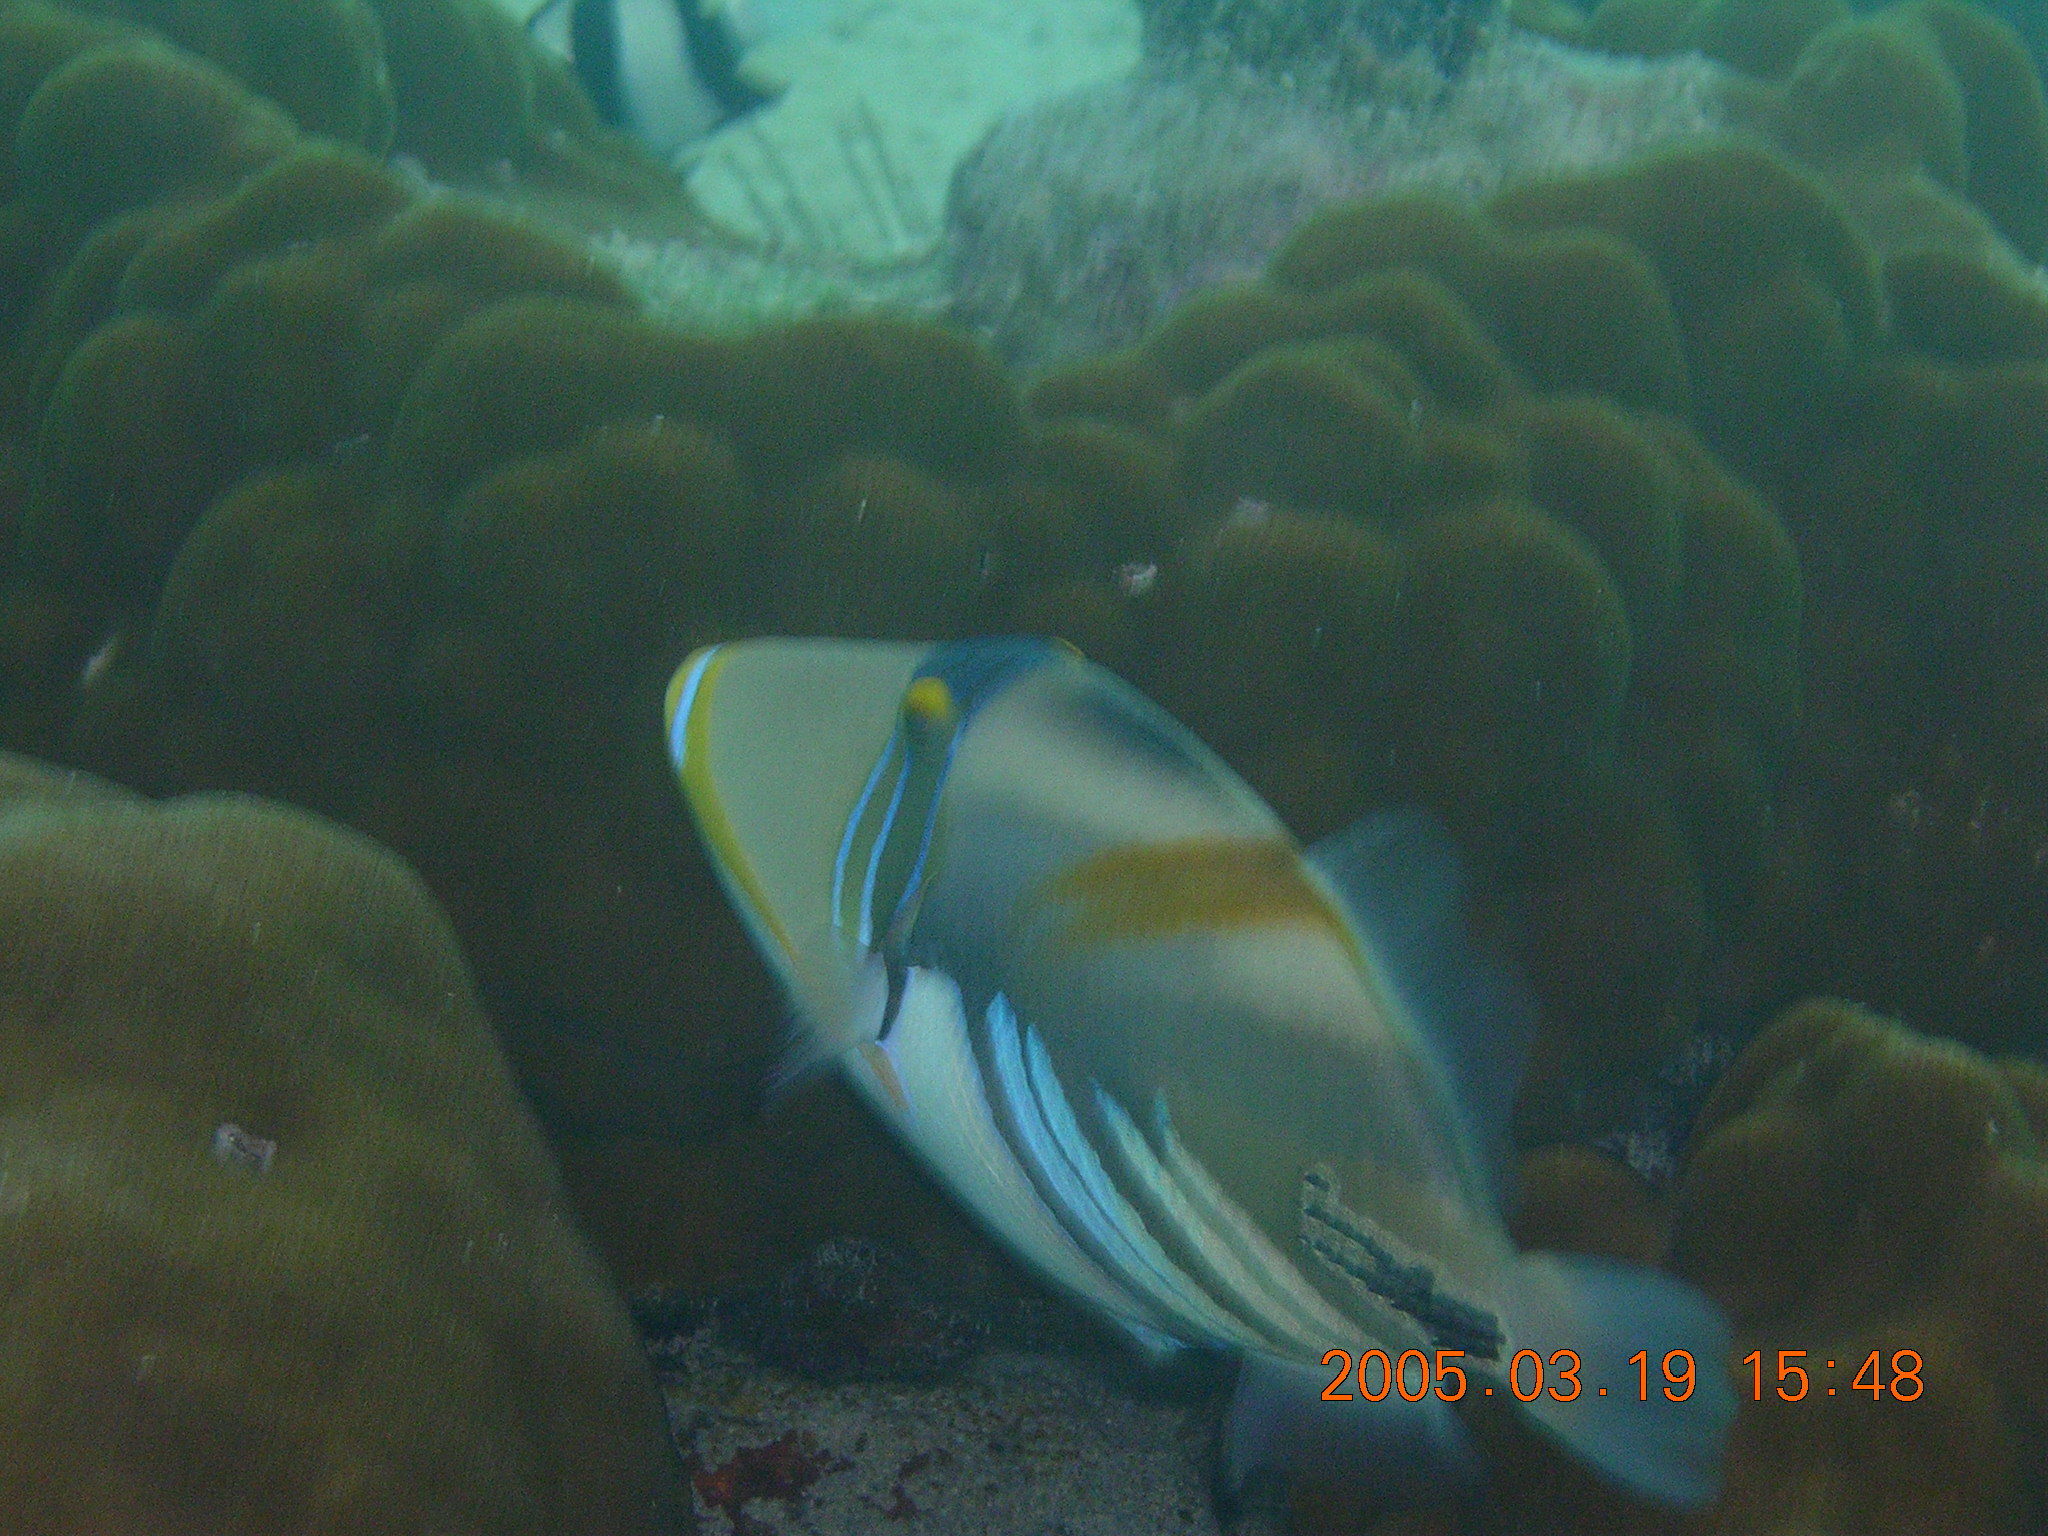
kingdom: Animalia
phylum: Chordata
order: Tetraodontiformes
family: Balistidae
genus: Rhinecanthus
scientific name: Rhinecanthus aculeatus
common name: White-banded triggerfish
